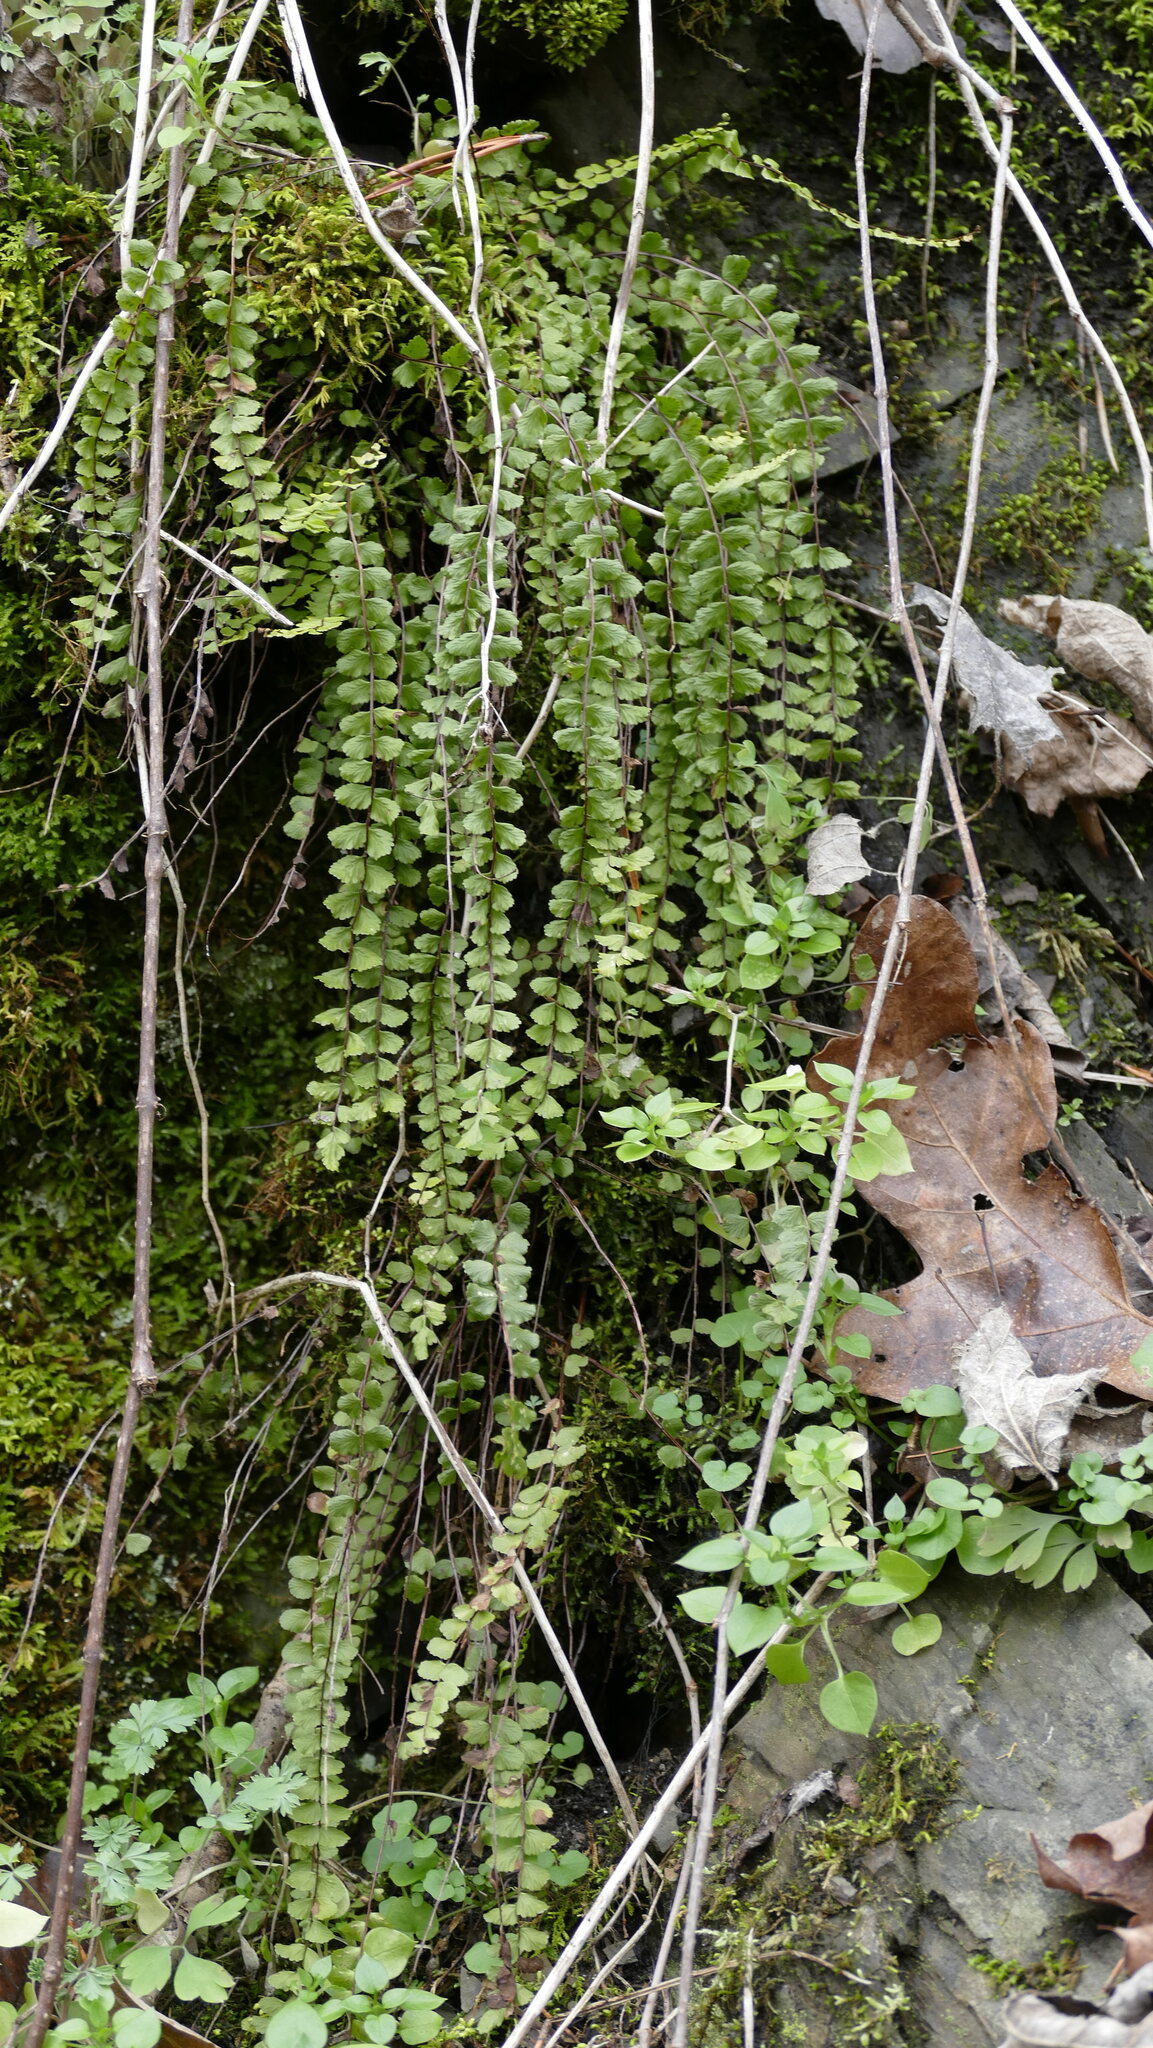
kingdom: Plantae
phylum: Tracheophyta
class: Polypodiopsida
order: Polypodiales
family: Aspleniaceae
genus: Asplenium
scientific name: Asplenium trichomanes
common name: Maidenhair spleenwort
